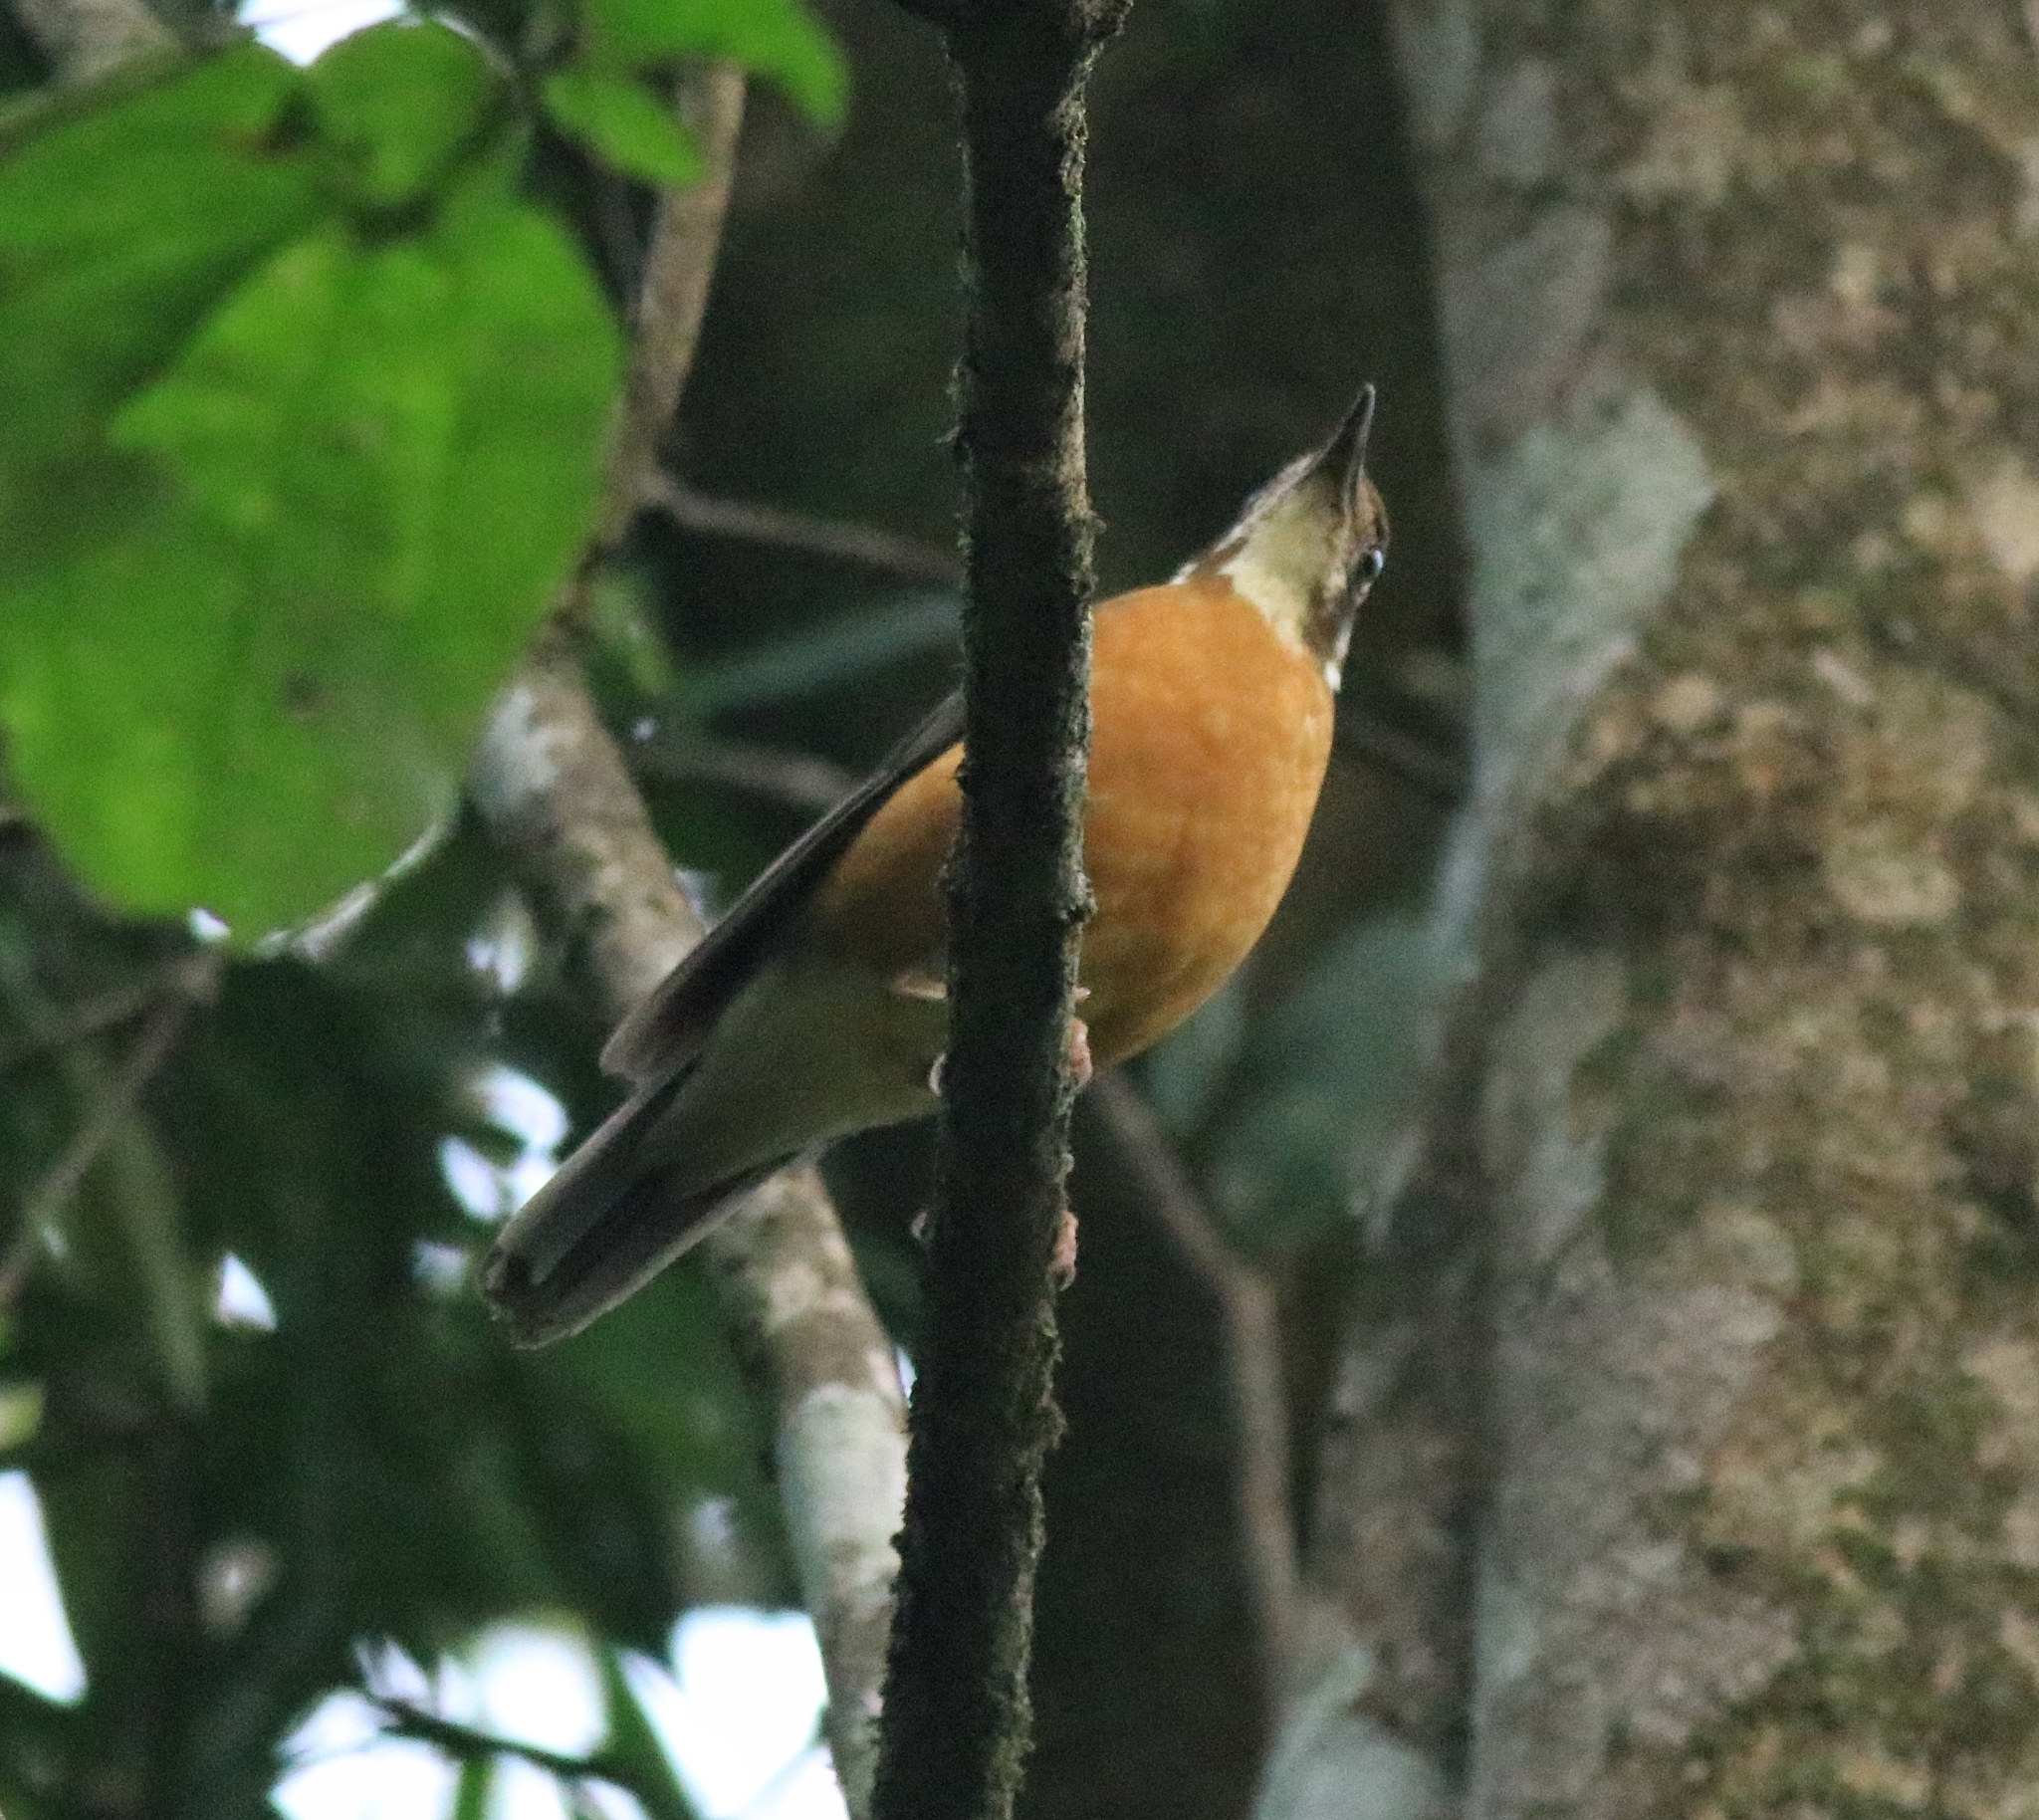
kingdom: Animalia
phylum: Chordata
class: Aves
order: Passeriformes
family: Turdidae
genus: Geokichla
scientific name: Geokichla citrina
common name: Orange-headed thrush
